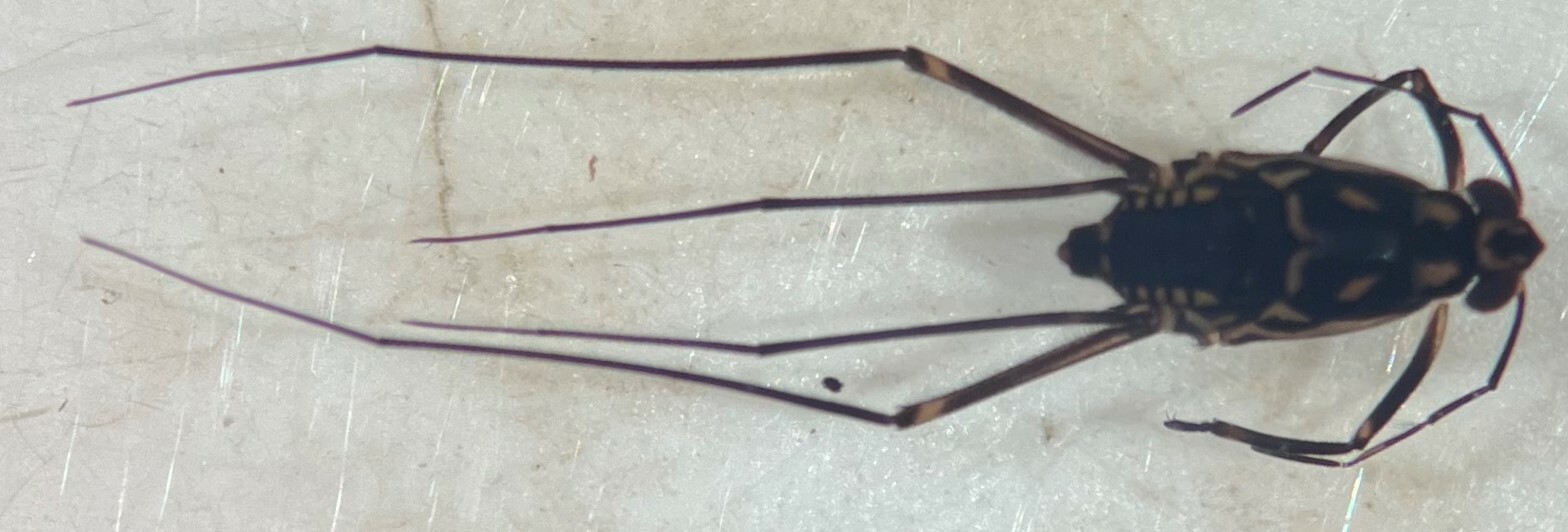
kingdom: Animalia
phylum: Arthropoda
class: Insecta
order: Hemiptera
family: Gerridae
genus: Trepobates
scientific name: Trepobates knighti
